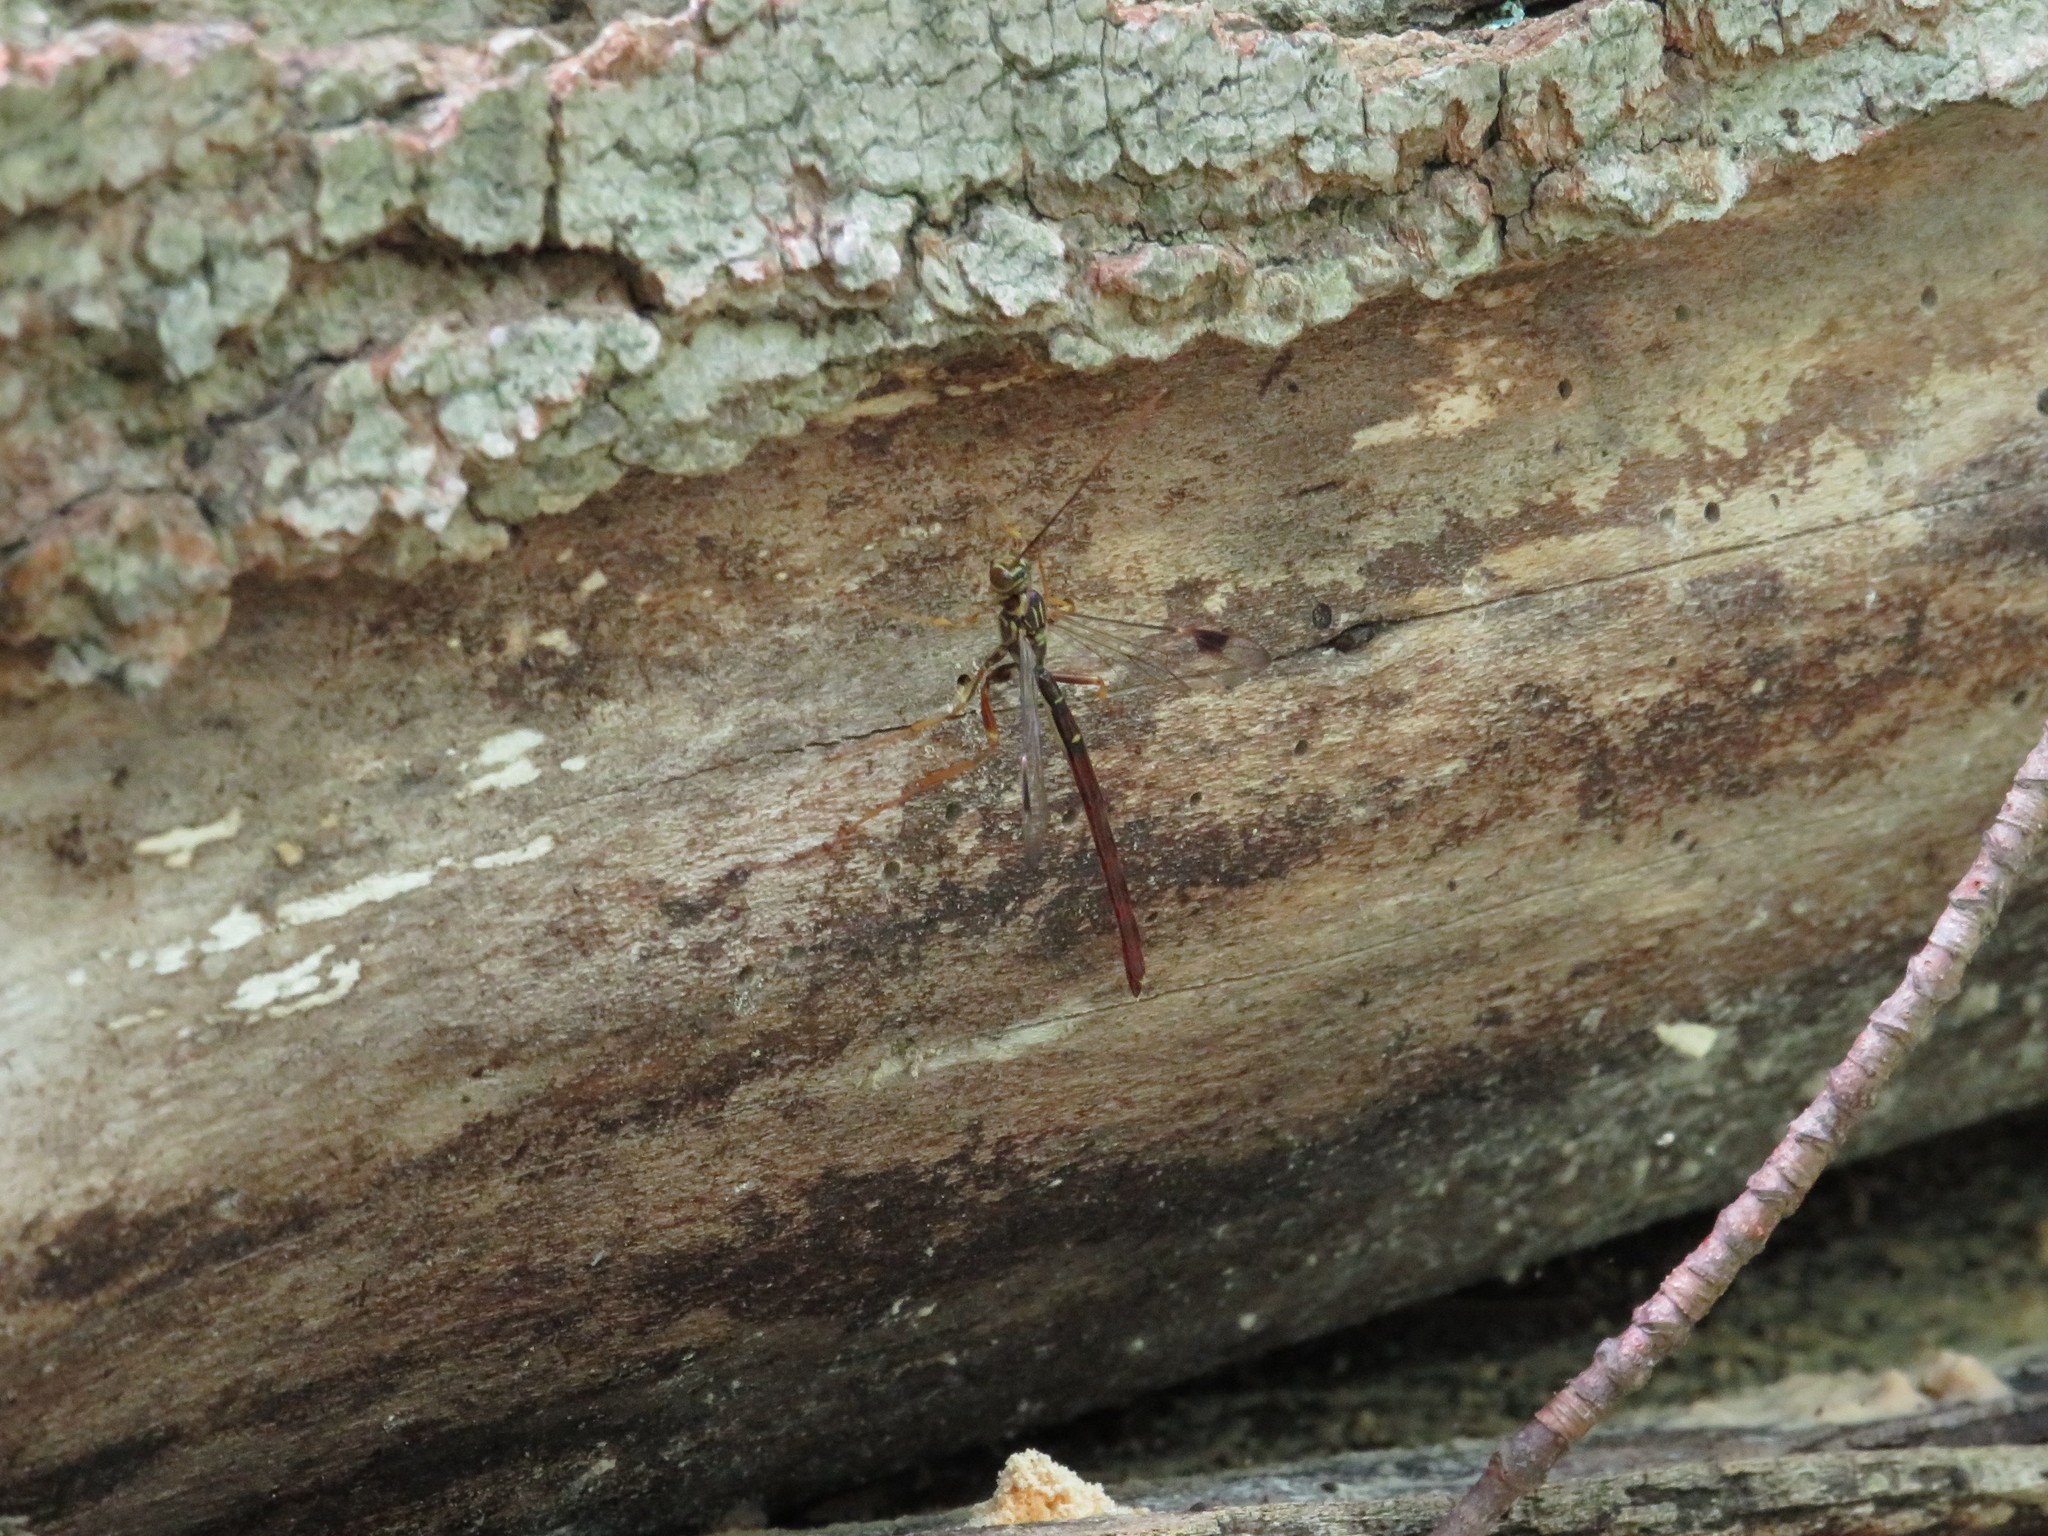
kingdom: Animalia
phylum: Arthropoda
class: Insecta
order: Hymenoptera
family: Ichneumonidae
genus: Megarhyssa
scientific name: Megarhyssa macrura
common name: Long-tailed giant ichneumonid wasp
